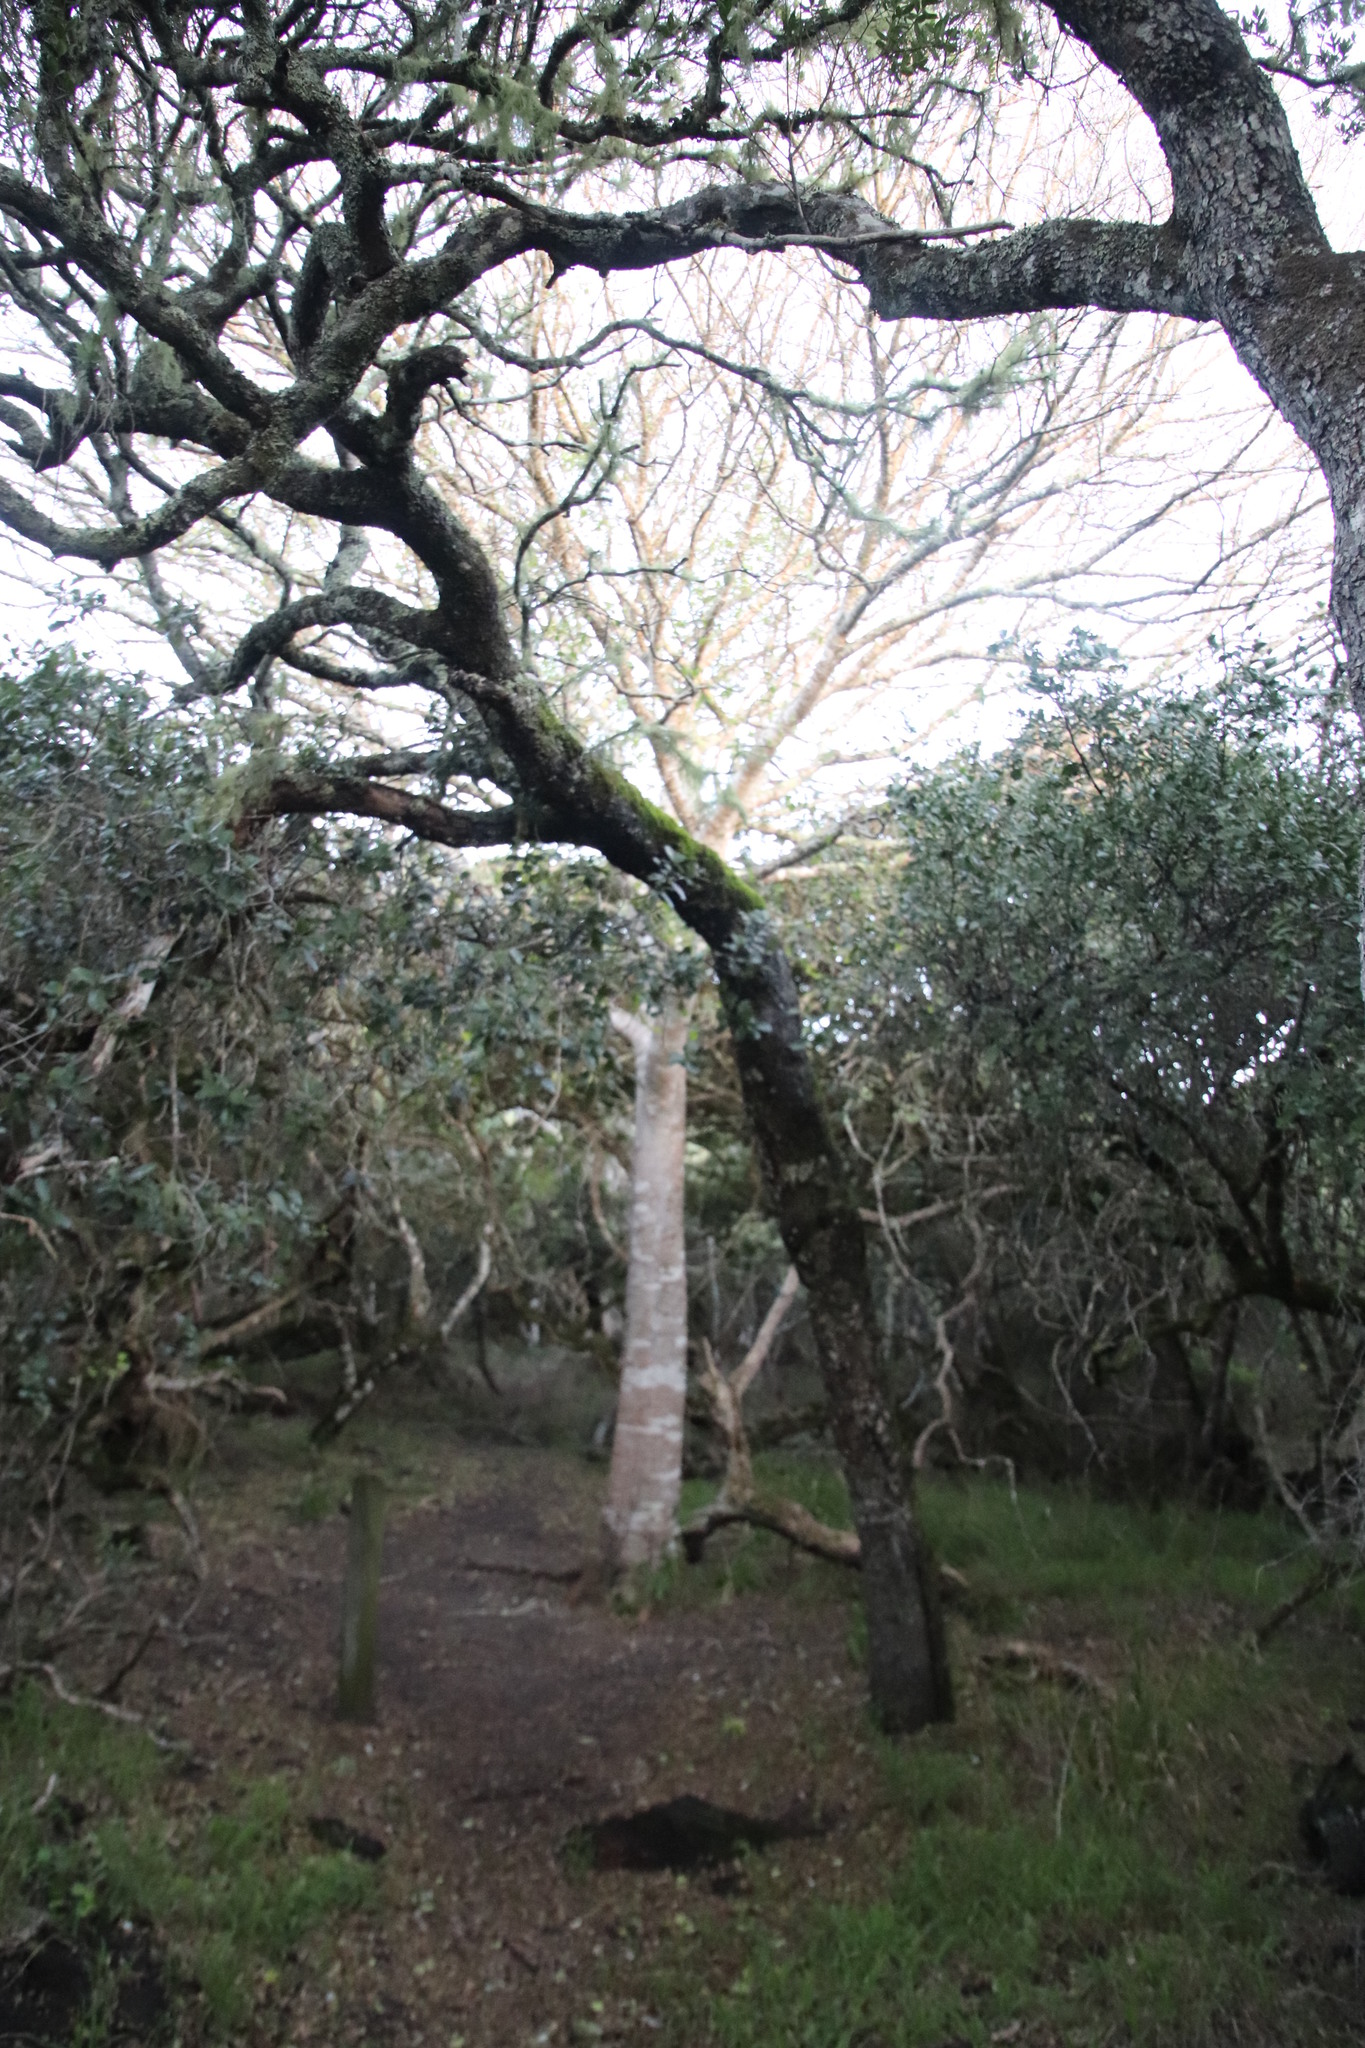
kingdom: Plantae
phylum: Tracheophyta
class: Magnoliopsida
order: Rosales
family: Cannabaceae
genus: Celtis
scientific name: Celtis africana
